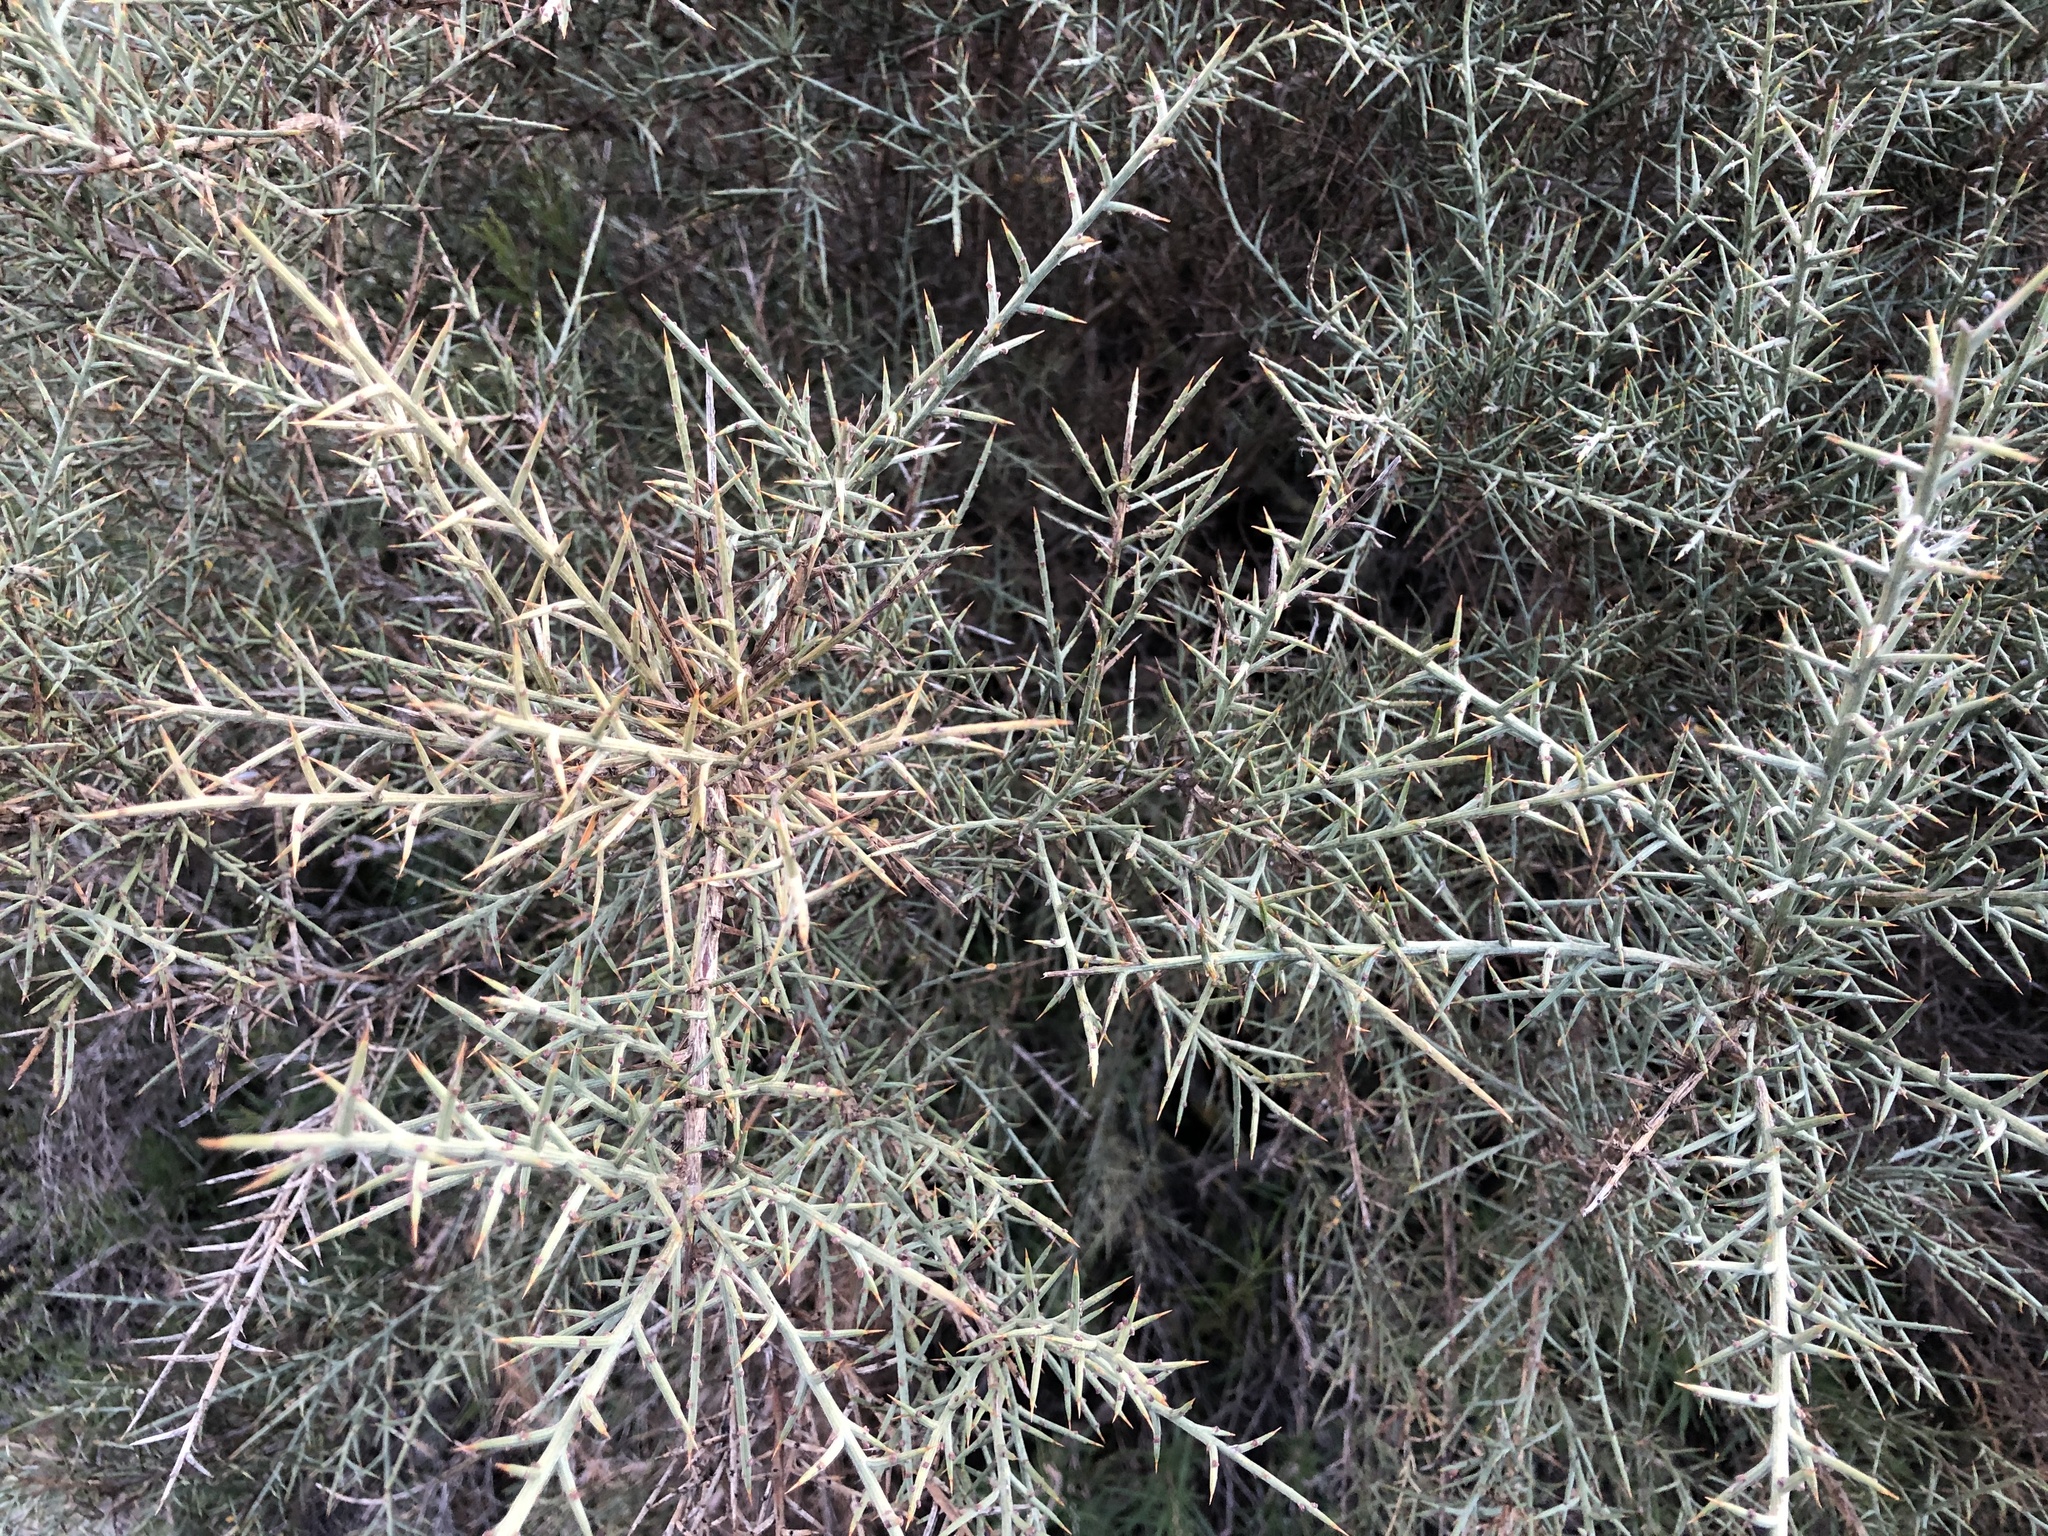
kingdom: Plantae
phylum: Tracheophyta
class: Magnoliopsida
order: Fabales
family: Fabaceae
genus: Genista
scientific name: Genista scorpius
